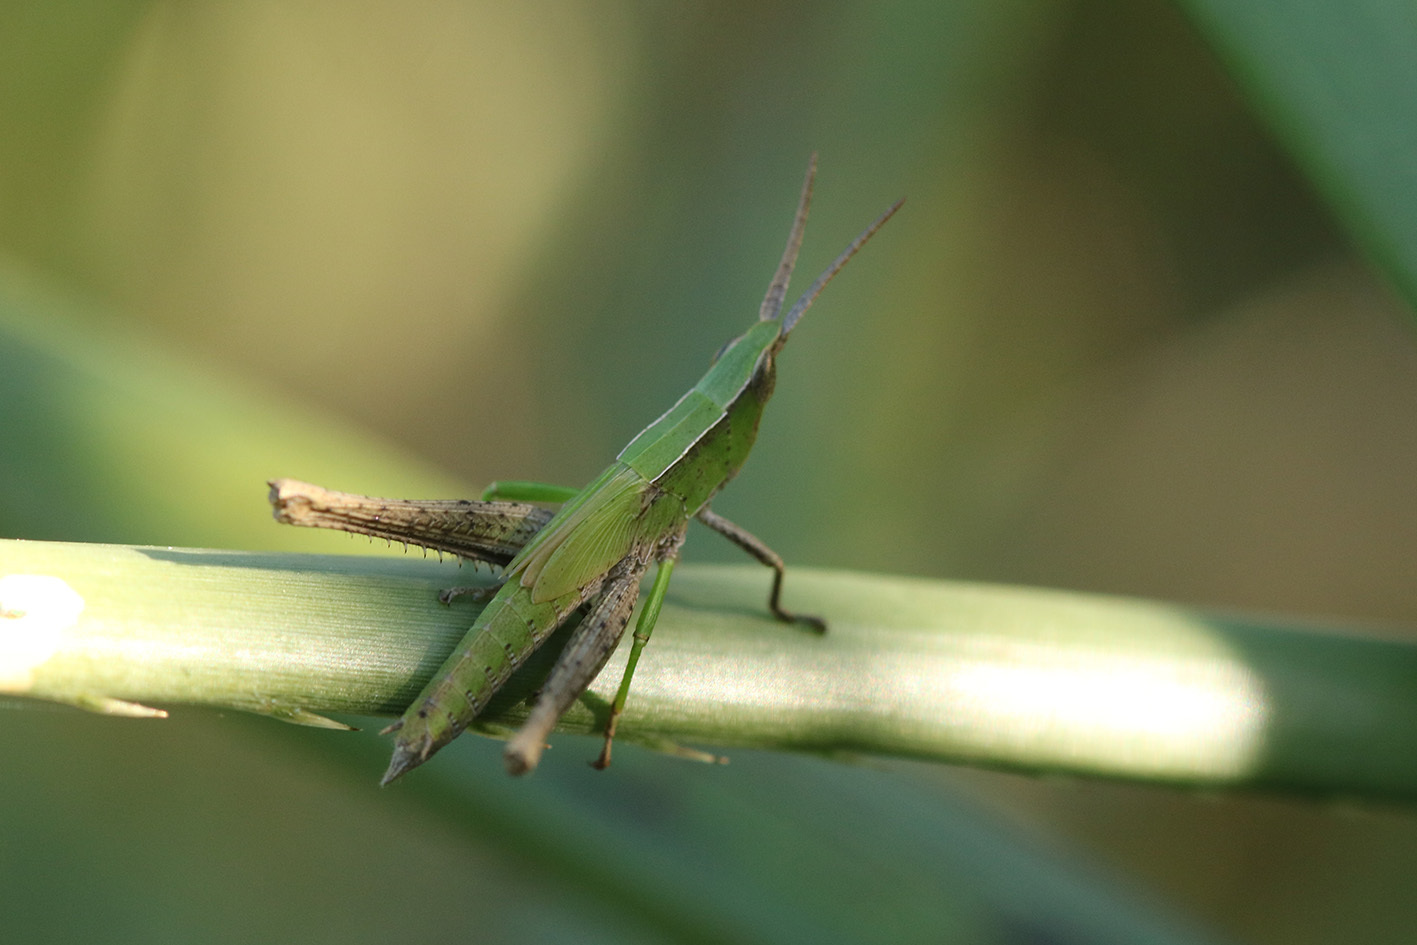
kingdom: Animalia
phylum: Arthropoda
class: Insecta
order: Orthoptera
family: Acrididae
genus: Metaleptea
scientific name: Metaleptea adspersa
